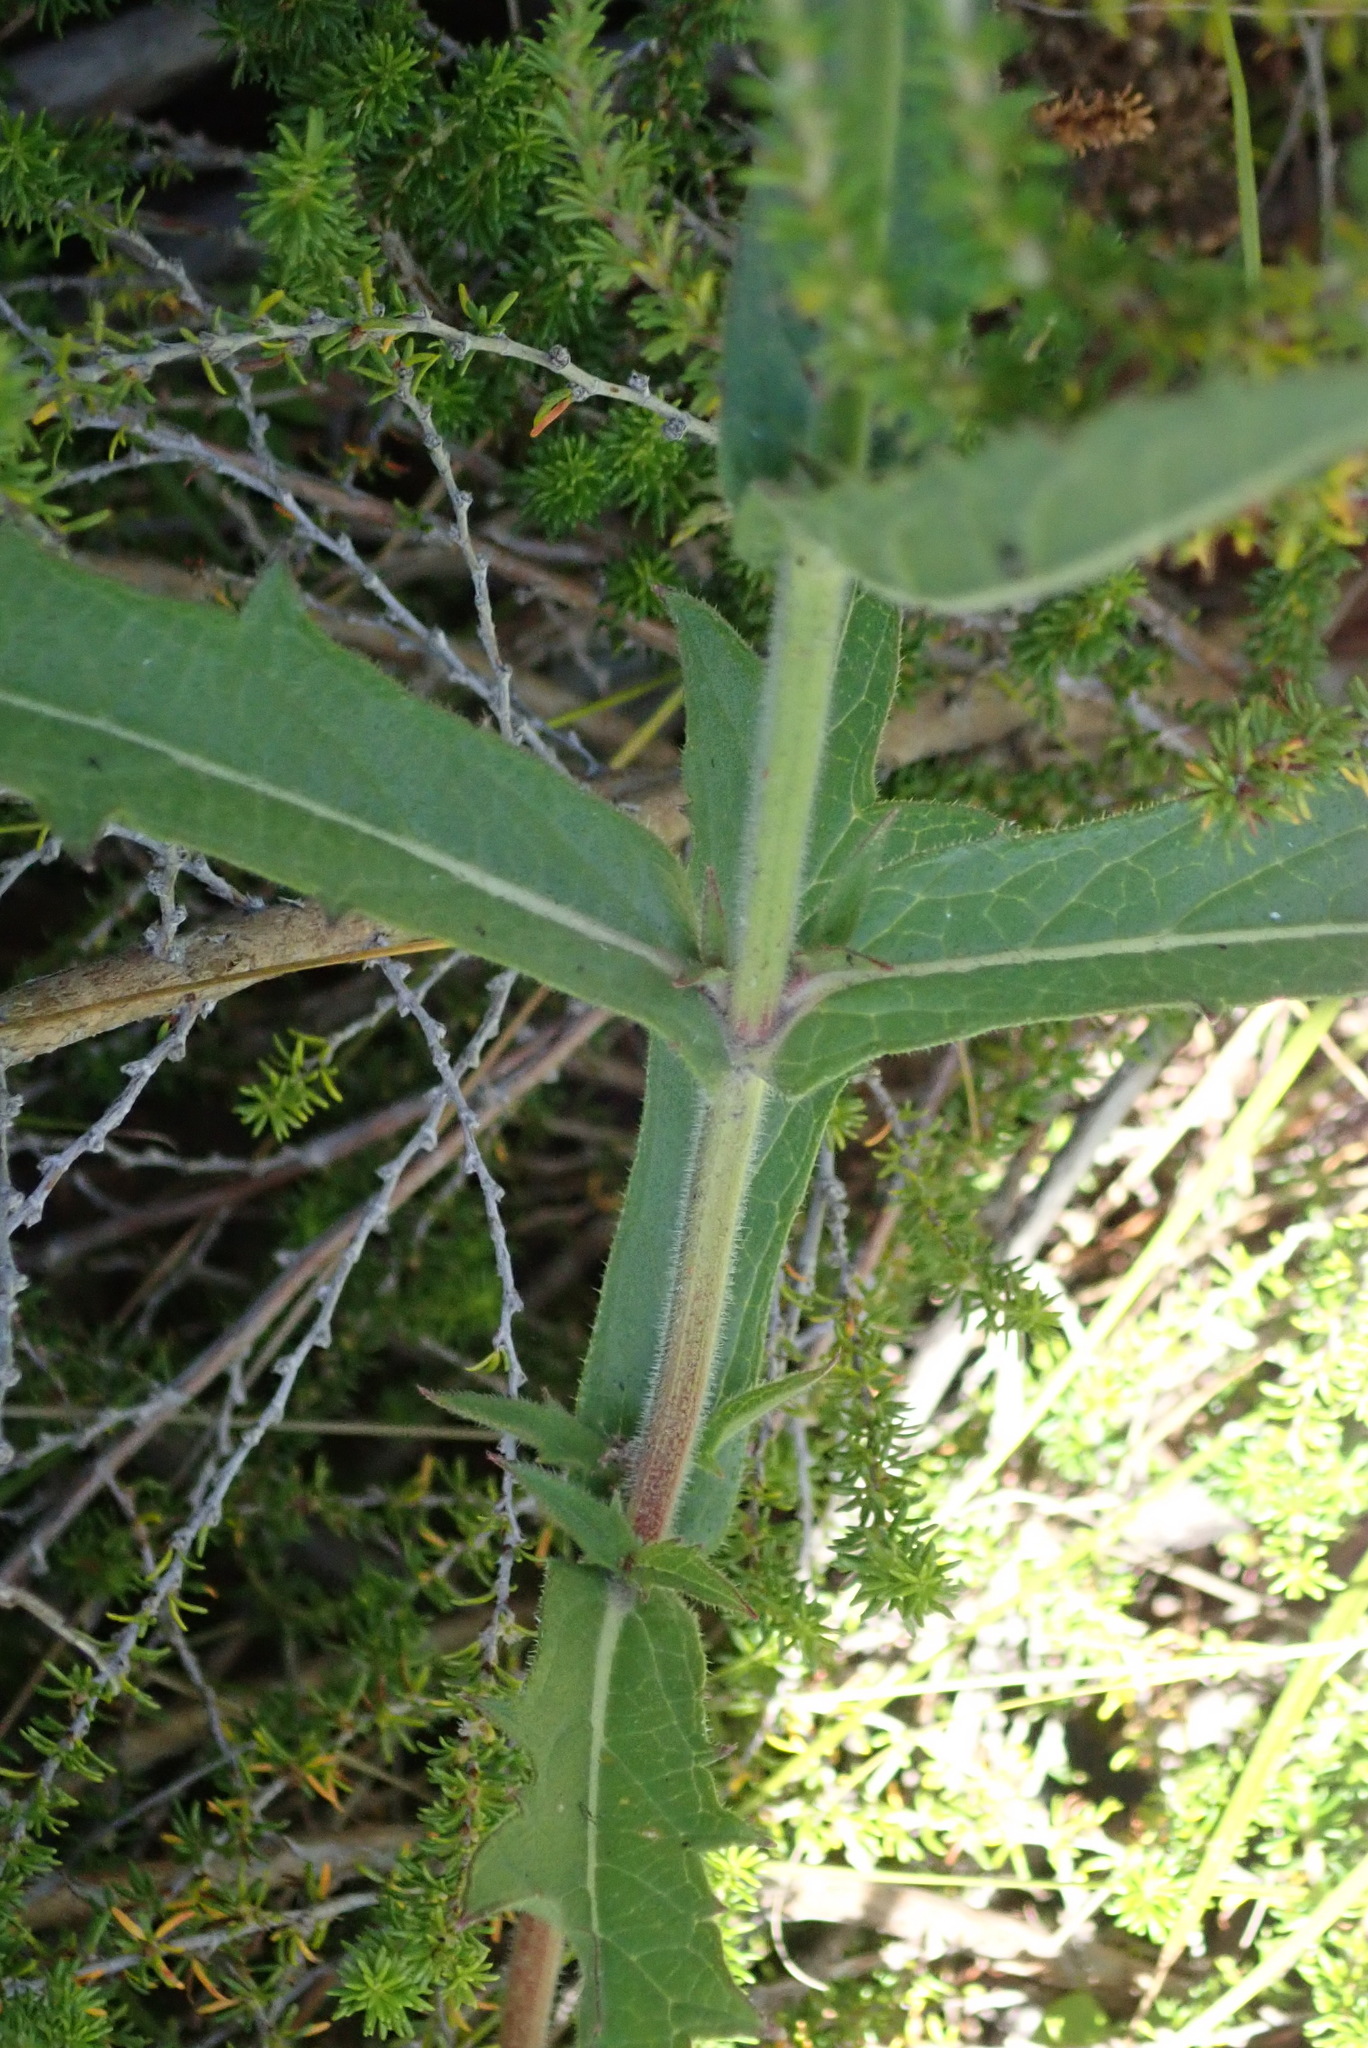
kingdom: Plantae
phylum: Tracheophyta
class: Magnoliopsida
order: Lamiales
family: Verbenaceae
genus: Verbena
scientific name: Verbena rigida
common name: Slender vervain
